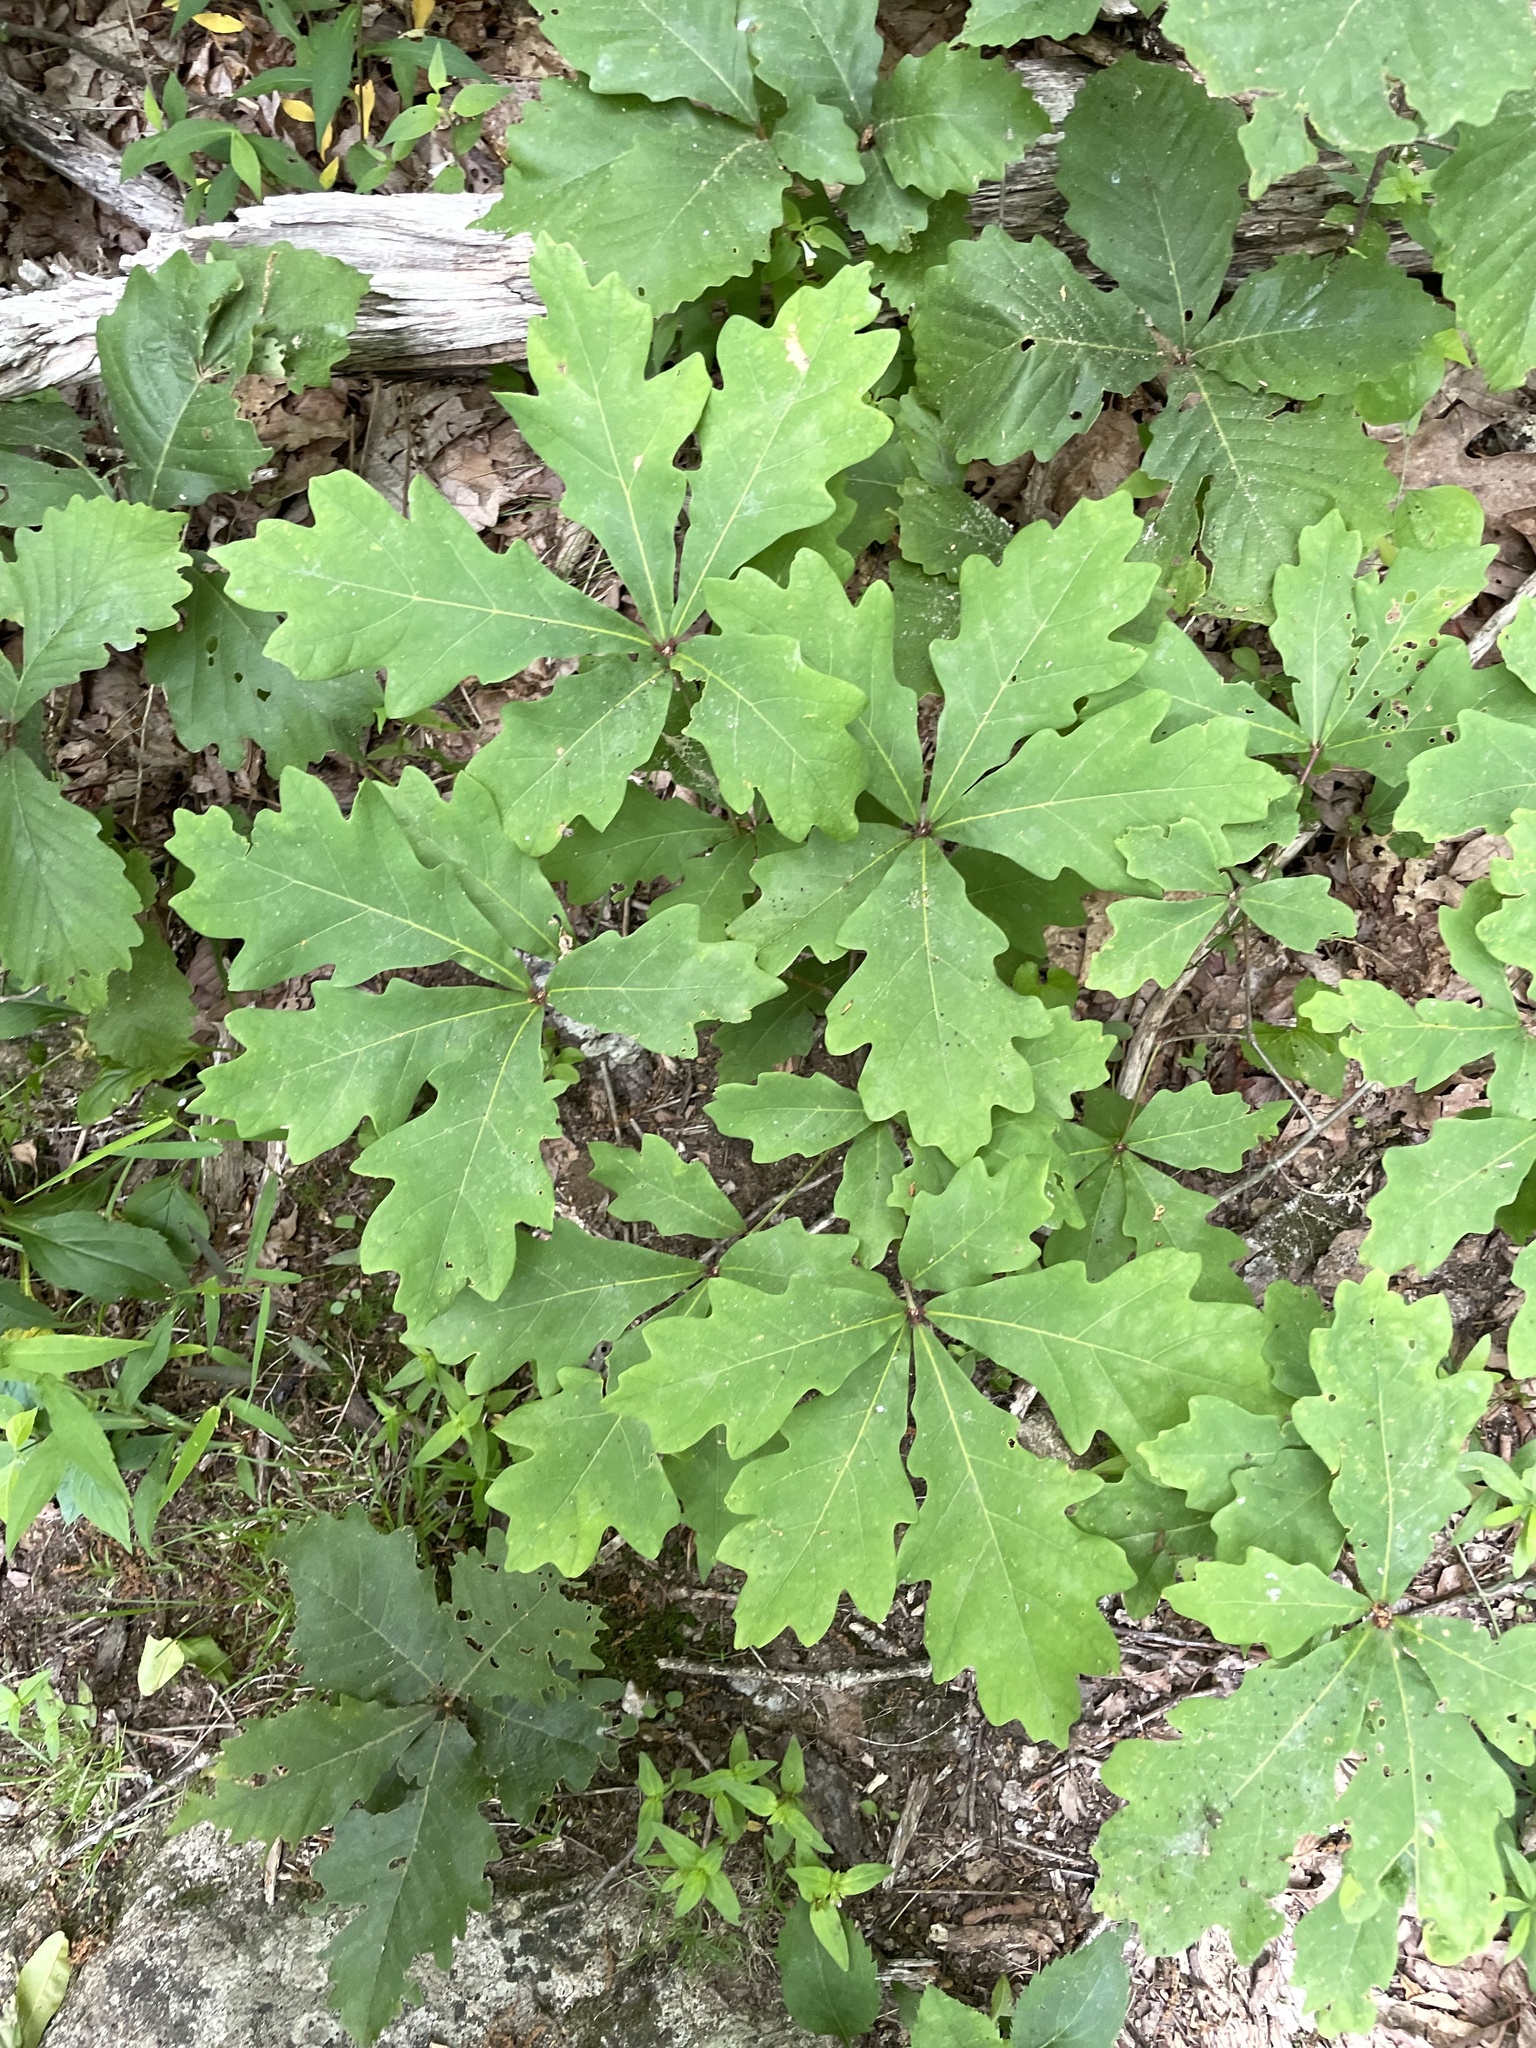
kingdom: Plantae
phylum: Tracheophyta
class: Magnoliopsida
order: Fagales
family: Fagaceae
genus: Quercus
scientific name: Quercus alba
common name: White oak
